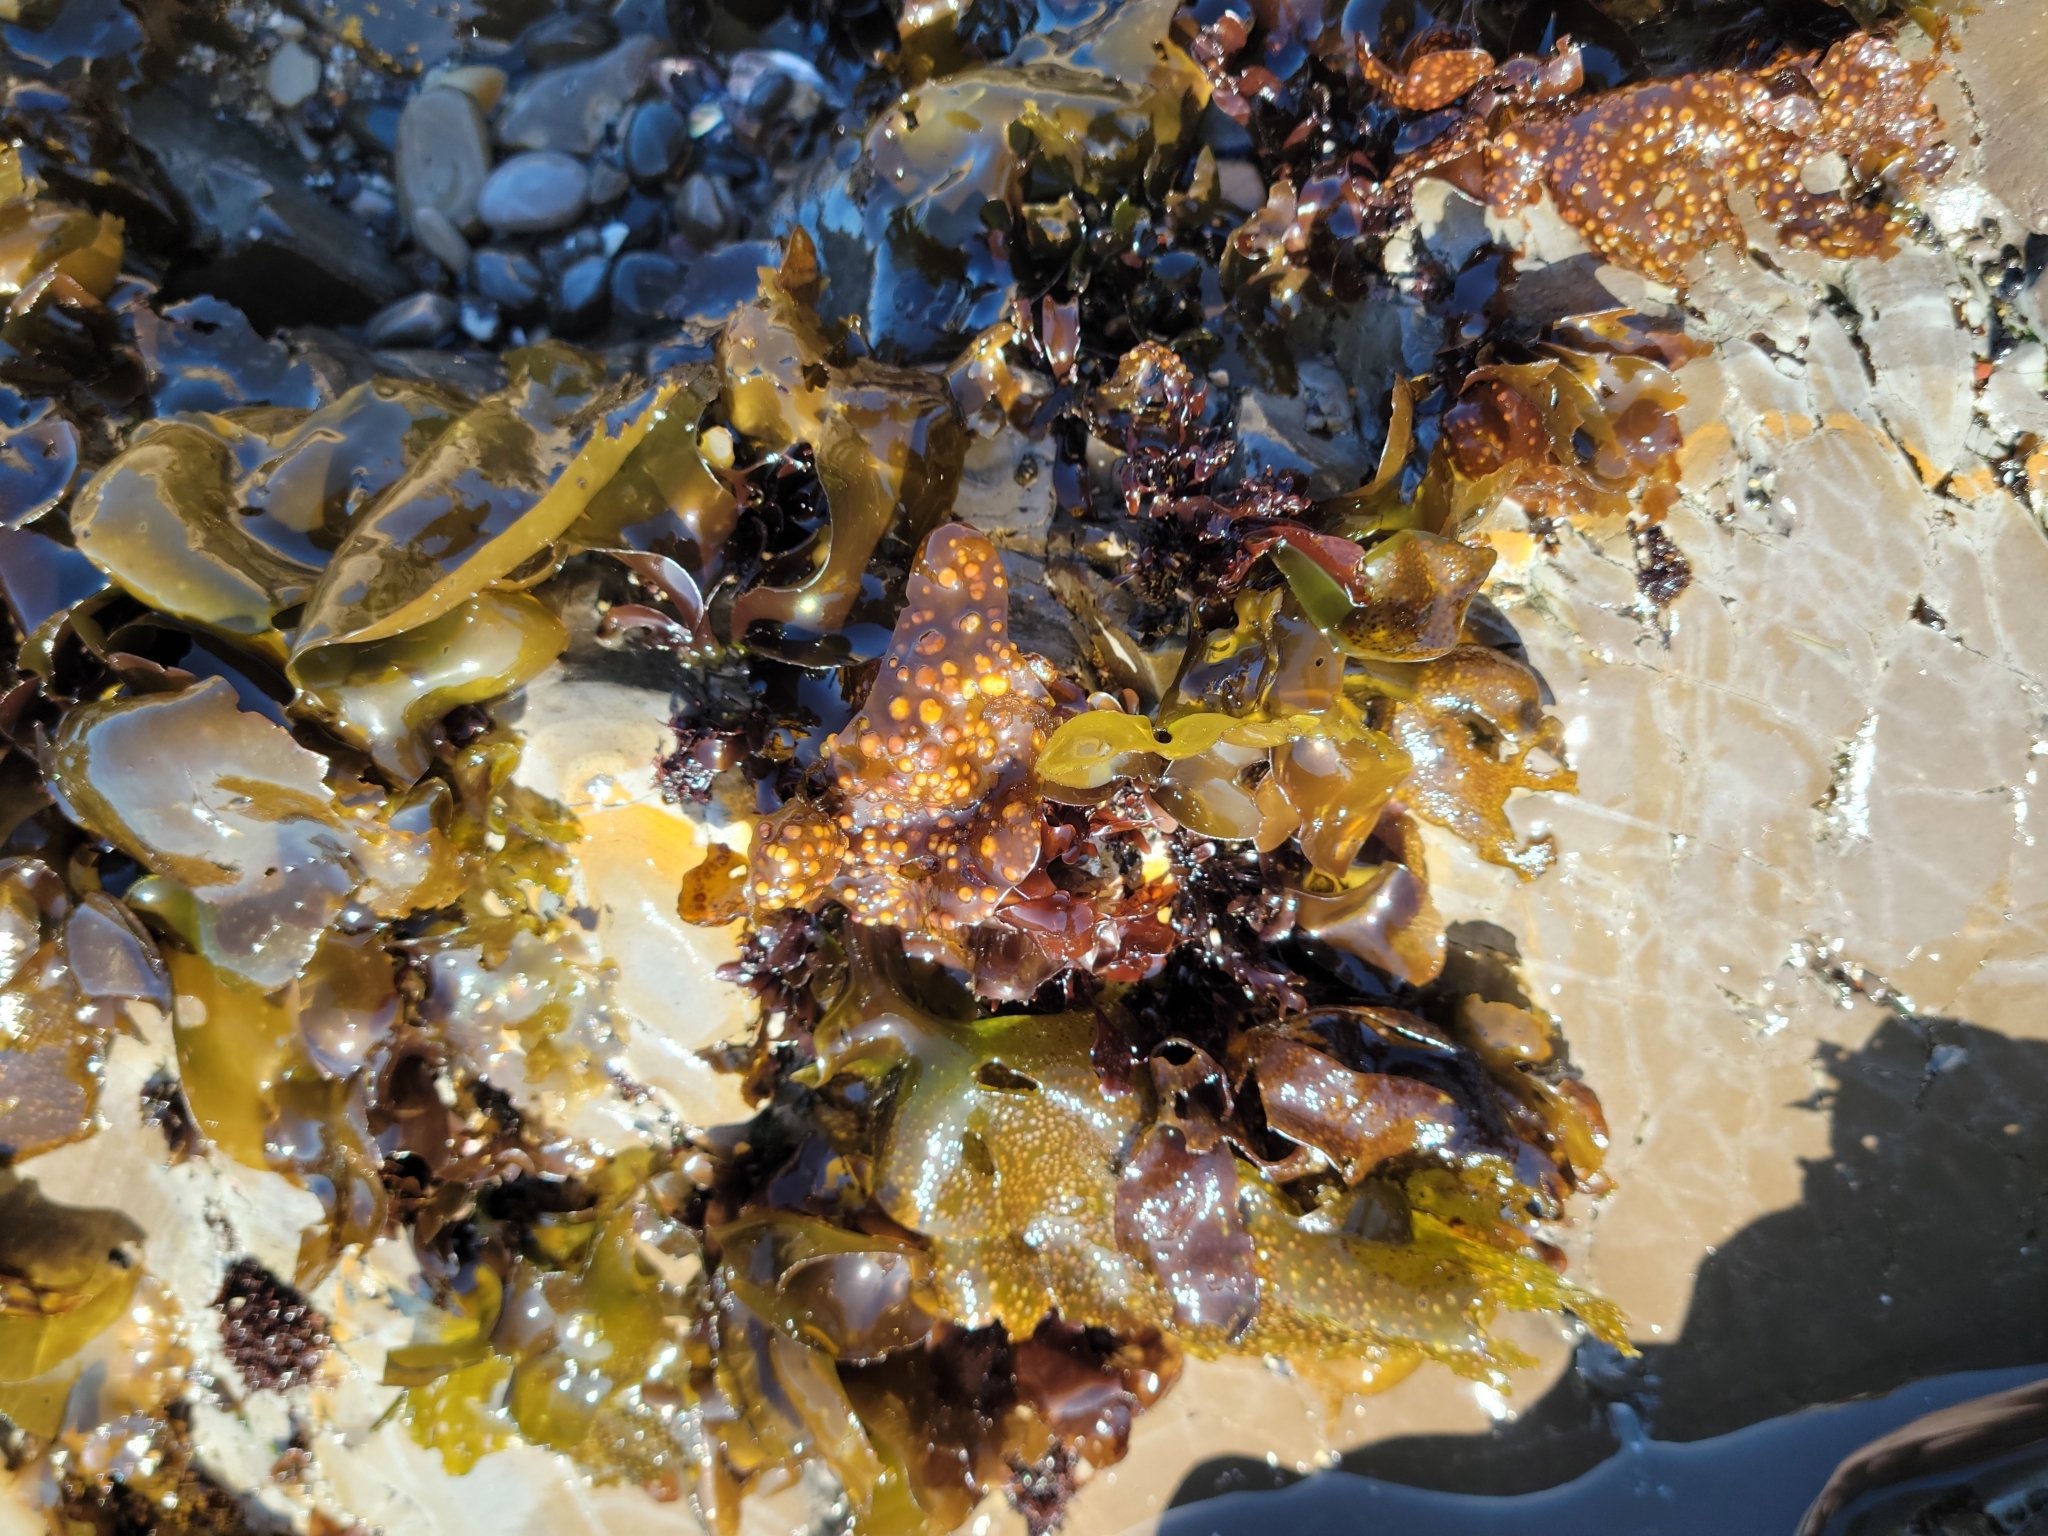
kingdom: Plantae
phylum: Rhodophyta
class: Florideophyceae
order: Gigartinales
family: Gigartinaceae
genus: Mazzaella
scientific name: Mazzaella flaccida
